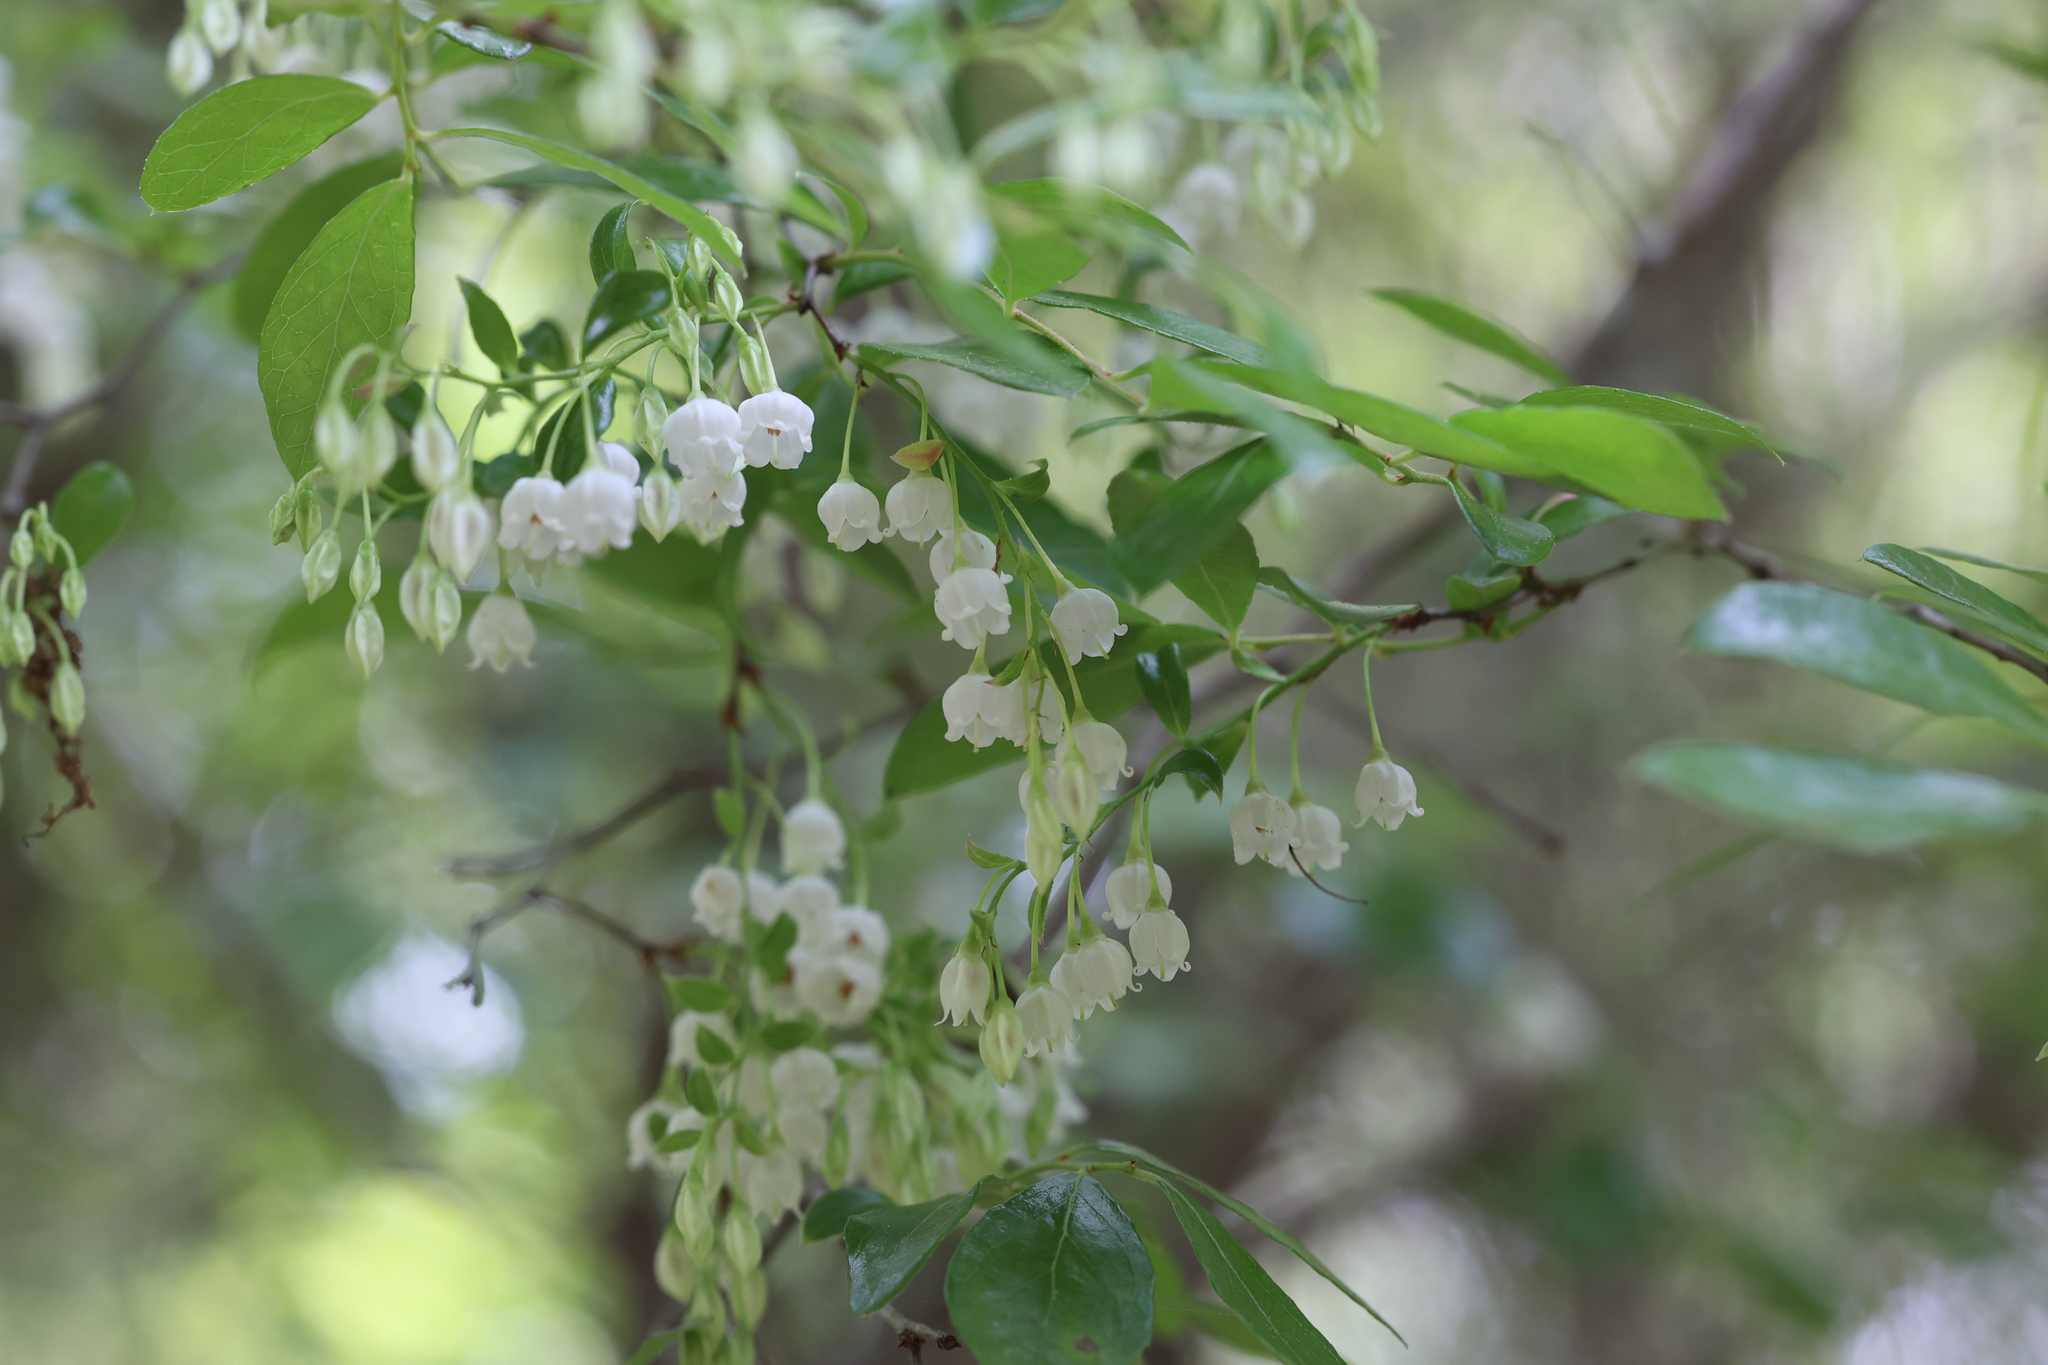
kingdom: Plantae
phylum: Tracheophyta
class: Magnoliopsida
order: Ericales
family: Ericaceae
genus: Vaccinium
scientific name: Vaccinium arboreum
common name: Farkleberry
